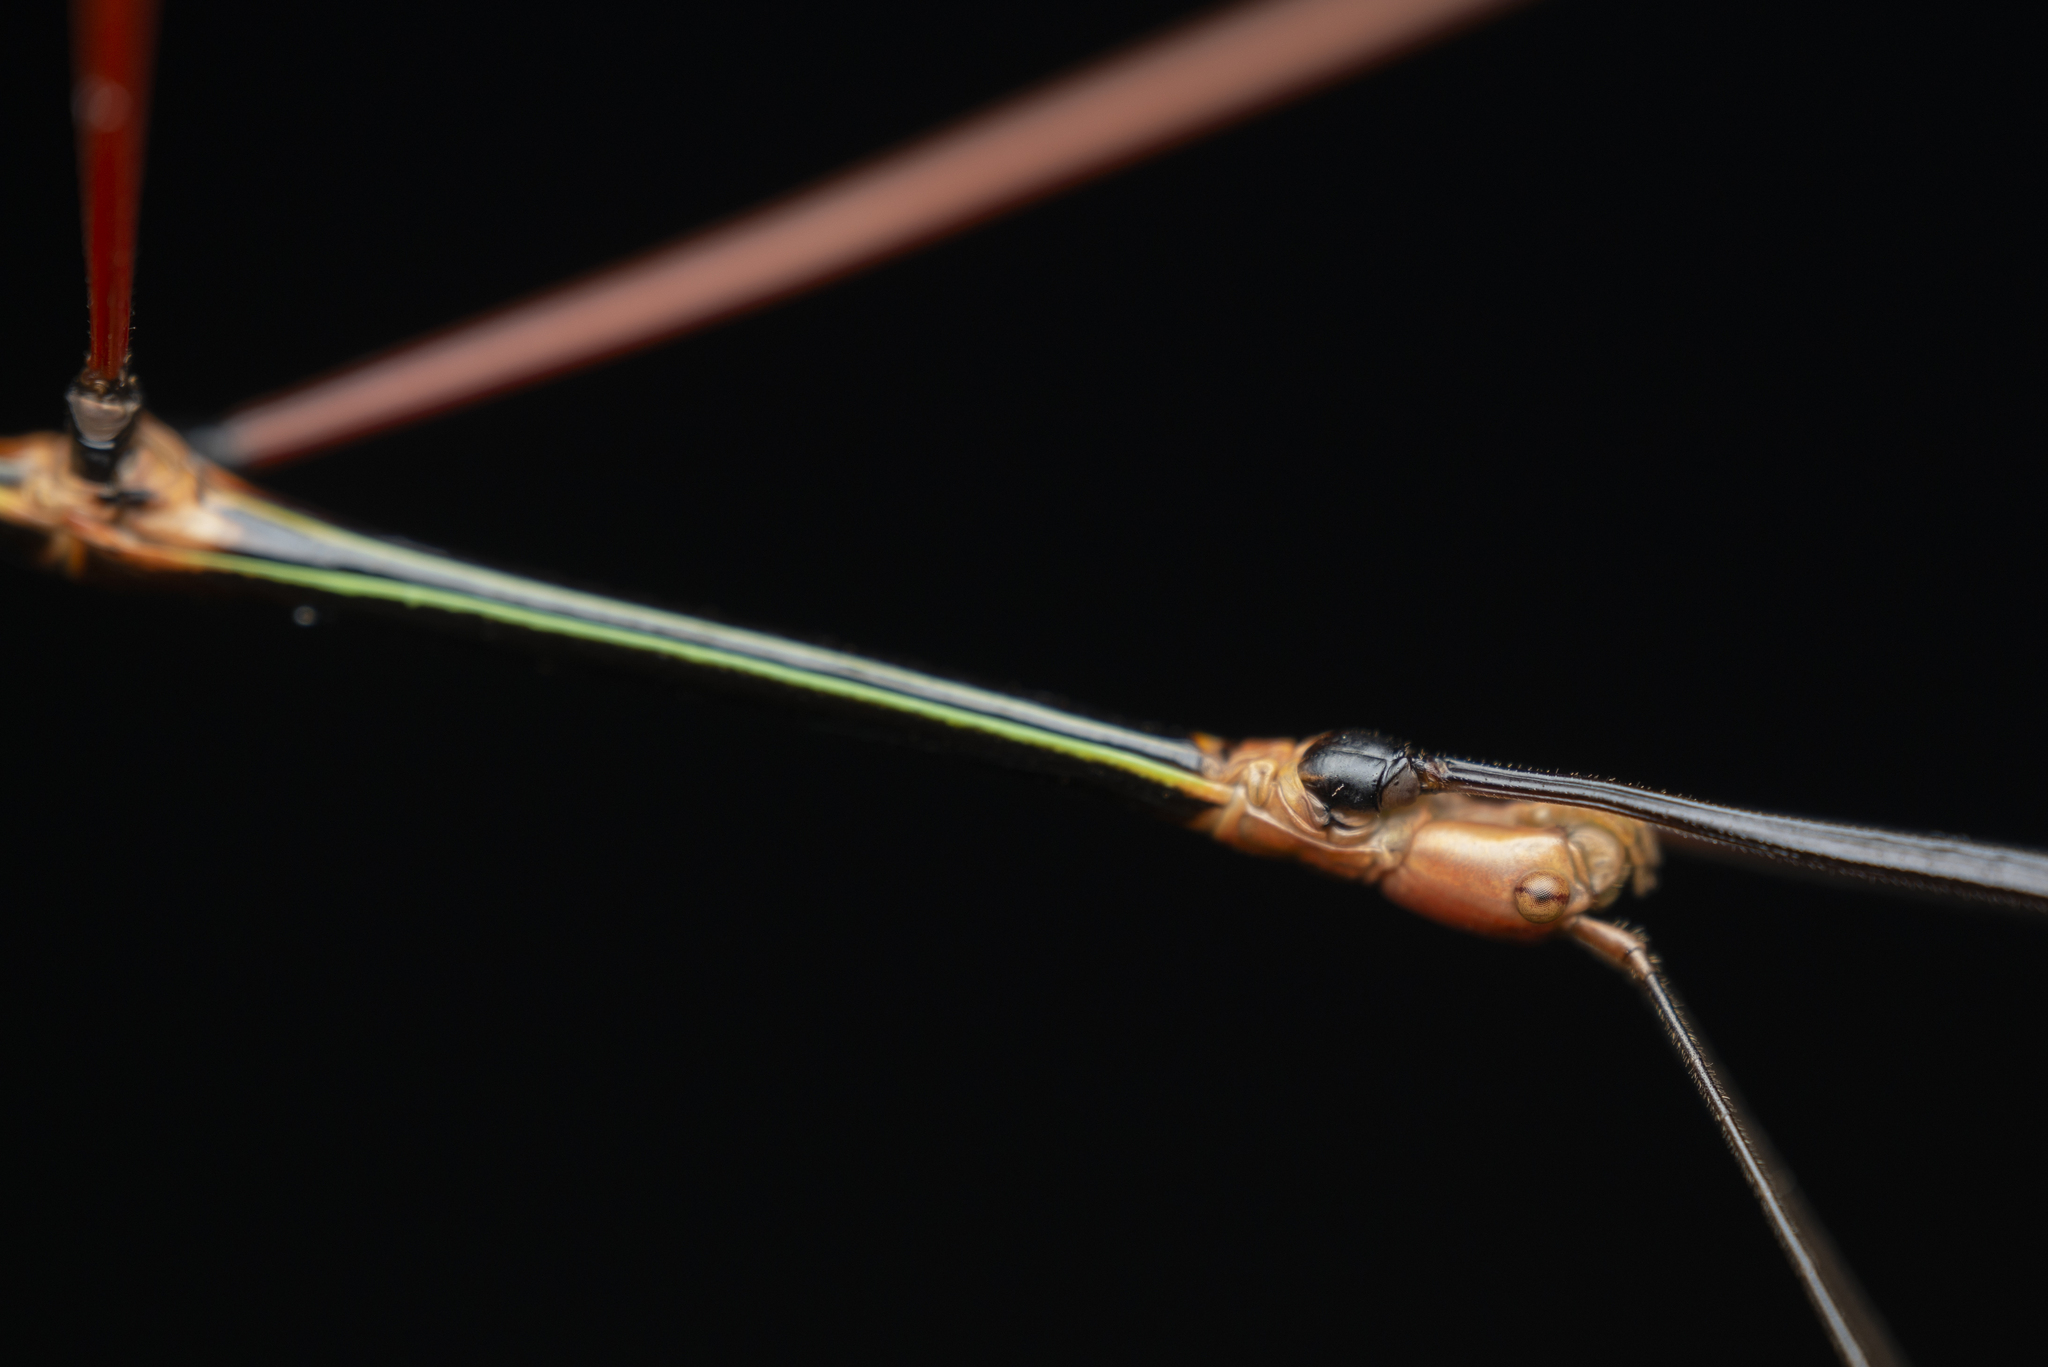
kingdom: Animalia
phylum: Arthropoda
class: Insecta
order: Phasmida
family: Phasmatidae
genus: Ramulus
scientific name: Ramulus caii
